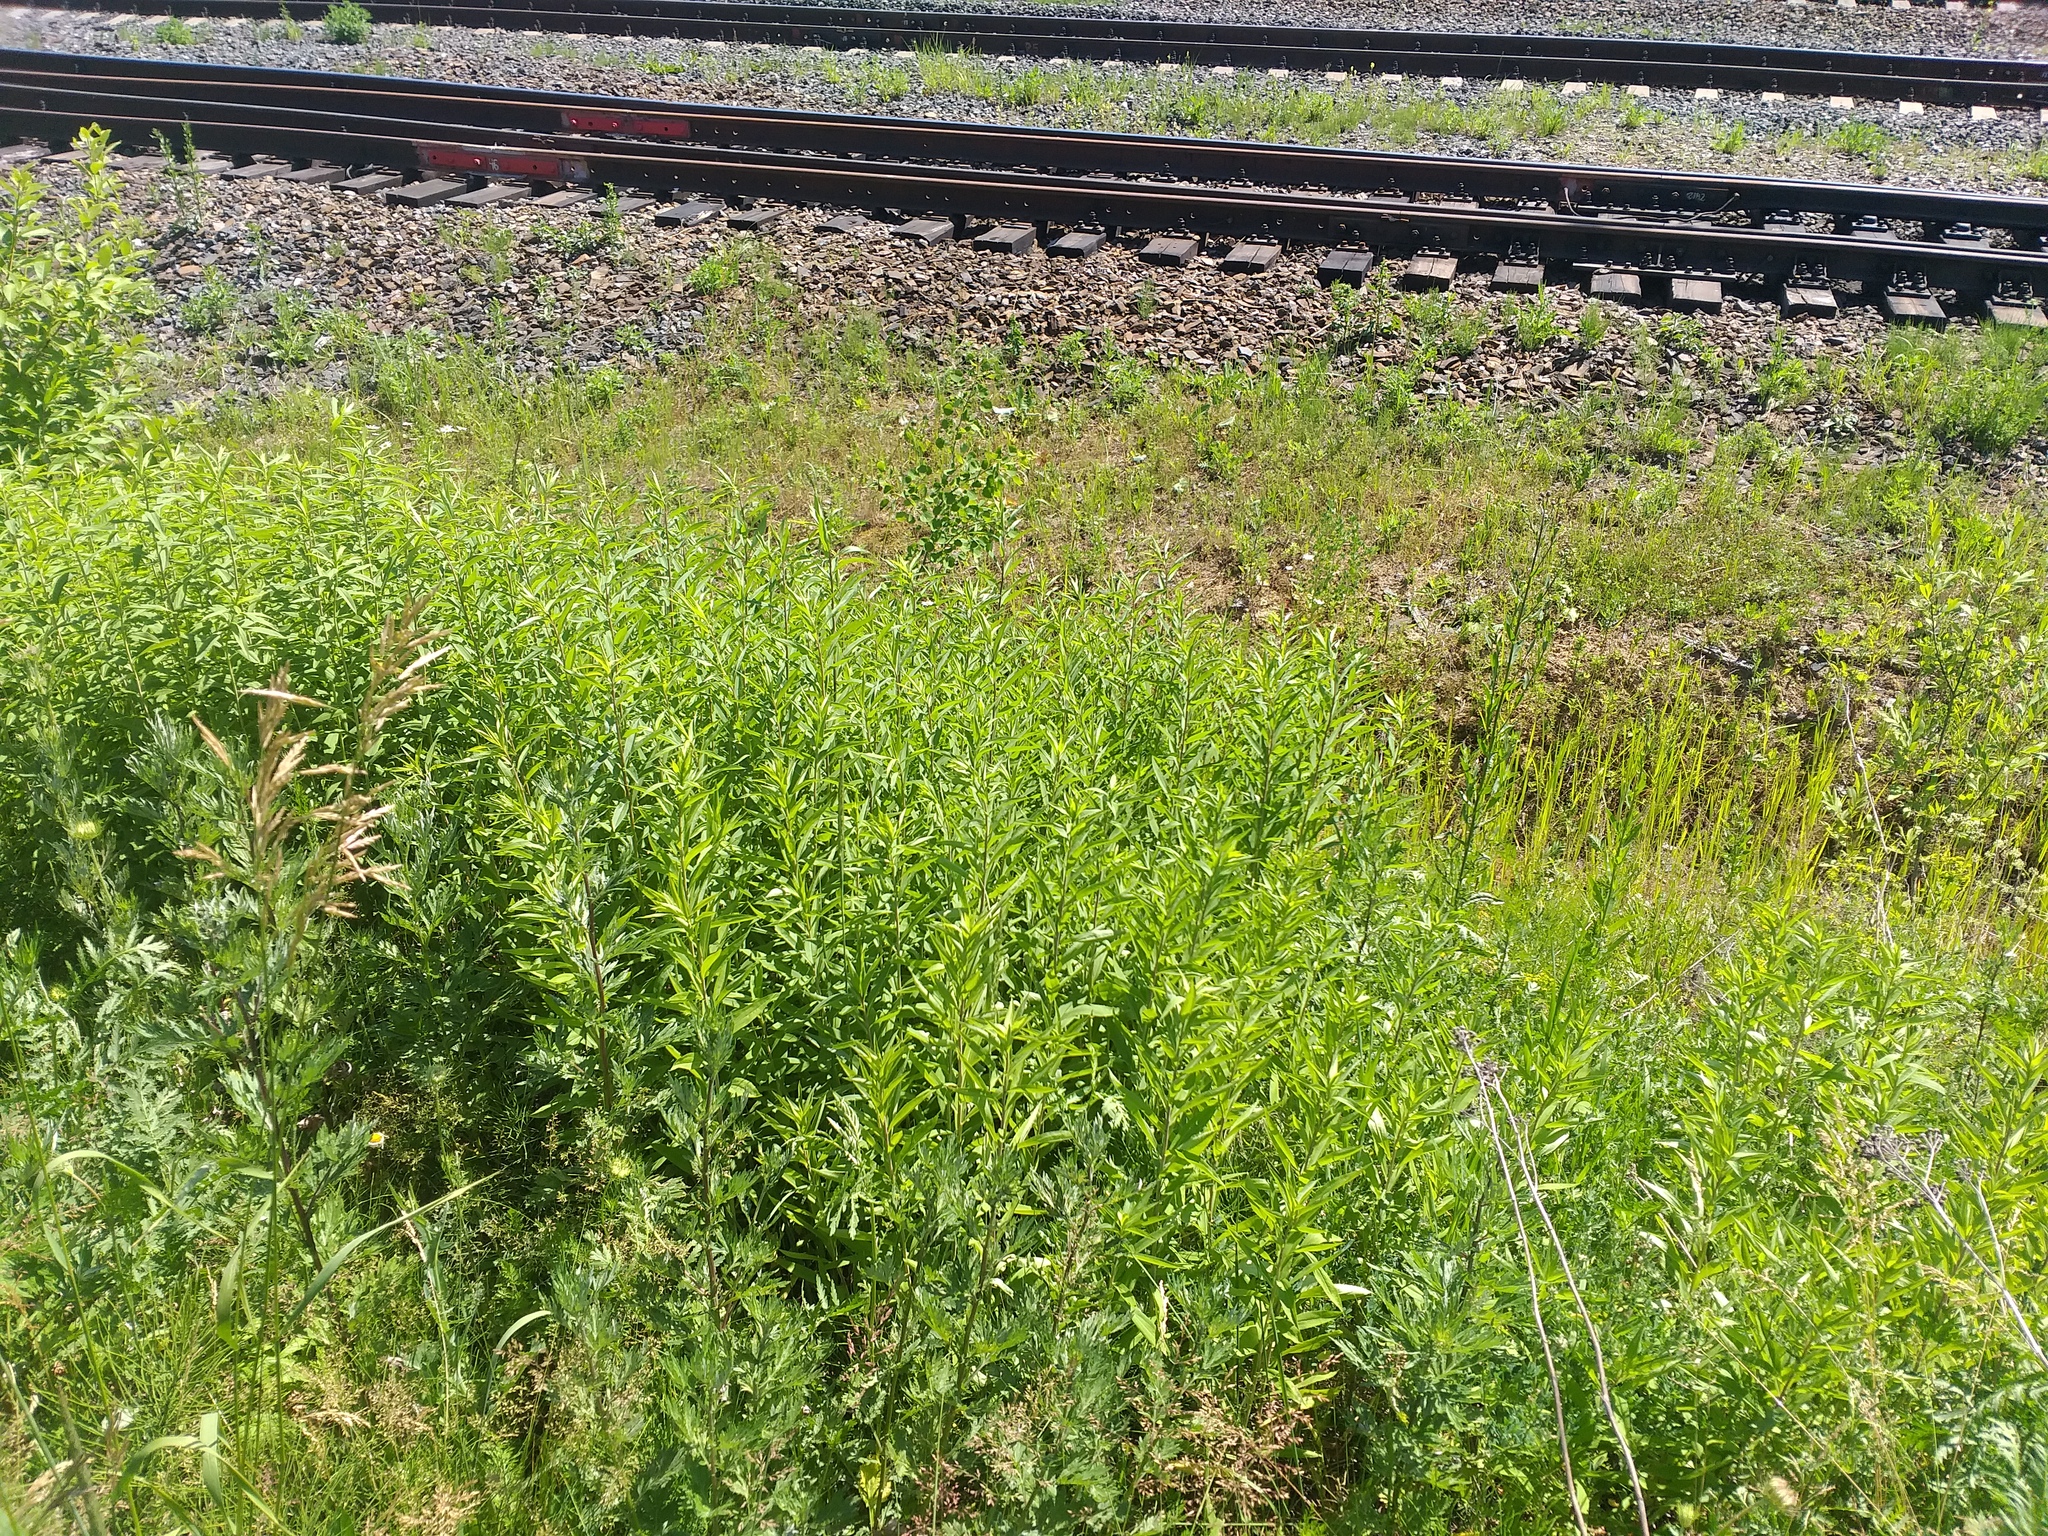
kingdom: Plantae
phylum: Tracheophyta
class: Magnoliopsida
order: Asterales
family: Asteraceae
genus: Solidago
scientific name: Solidago gigantea
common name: Giant goldenrod
